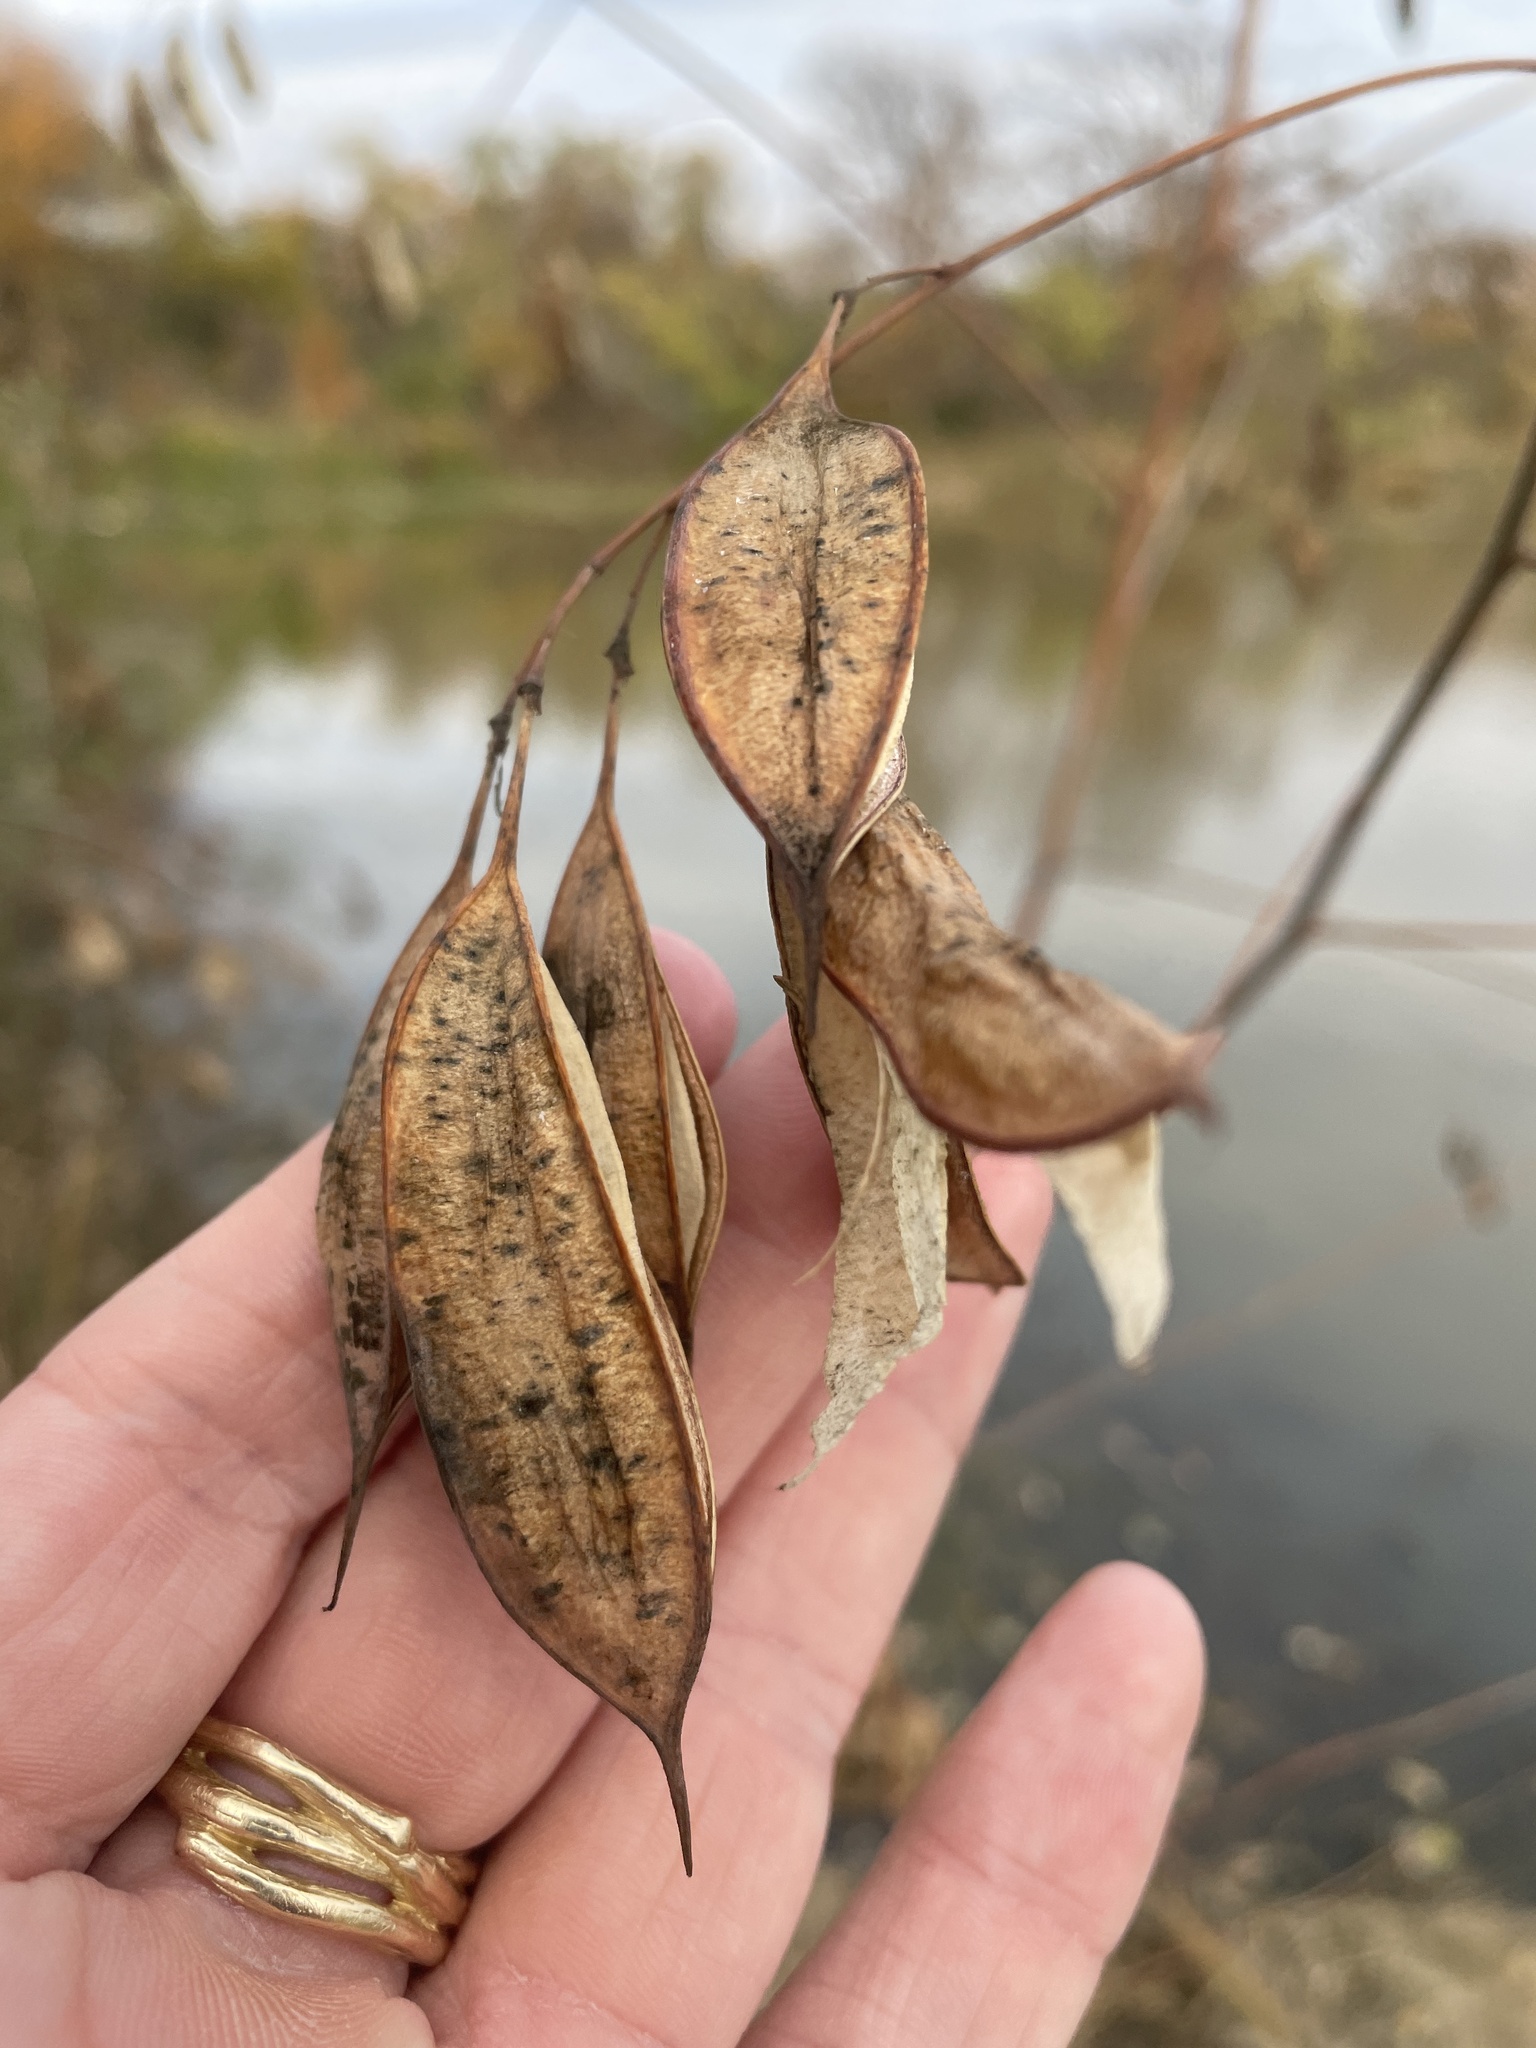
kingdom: Plantae
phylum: Tracheophyta
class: Magnoliopsida
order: Fabales
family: Fabaceae
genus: Sesbania
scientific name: Sesbania vesicaria
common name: Bagpod
